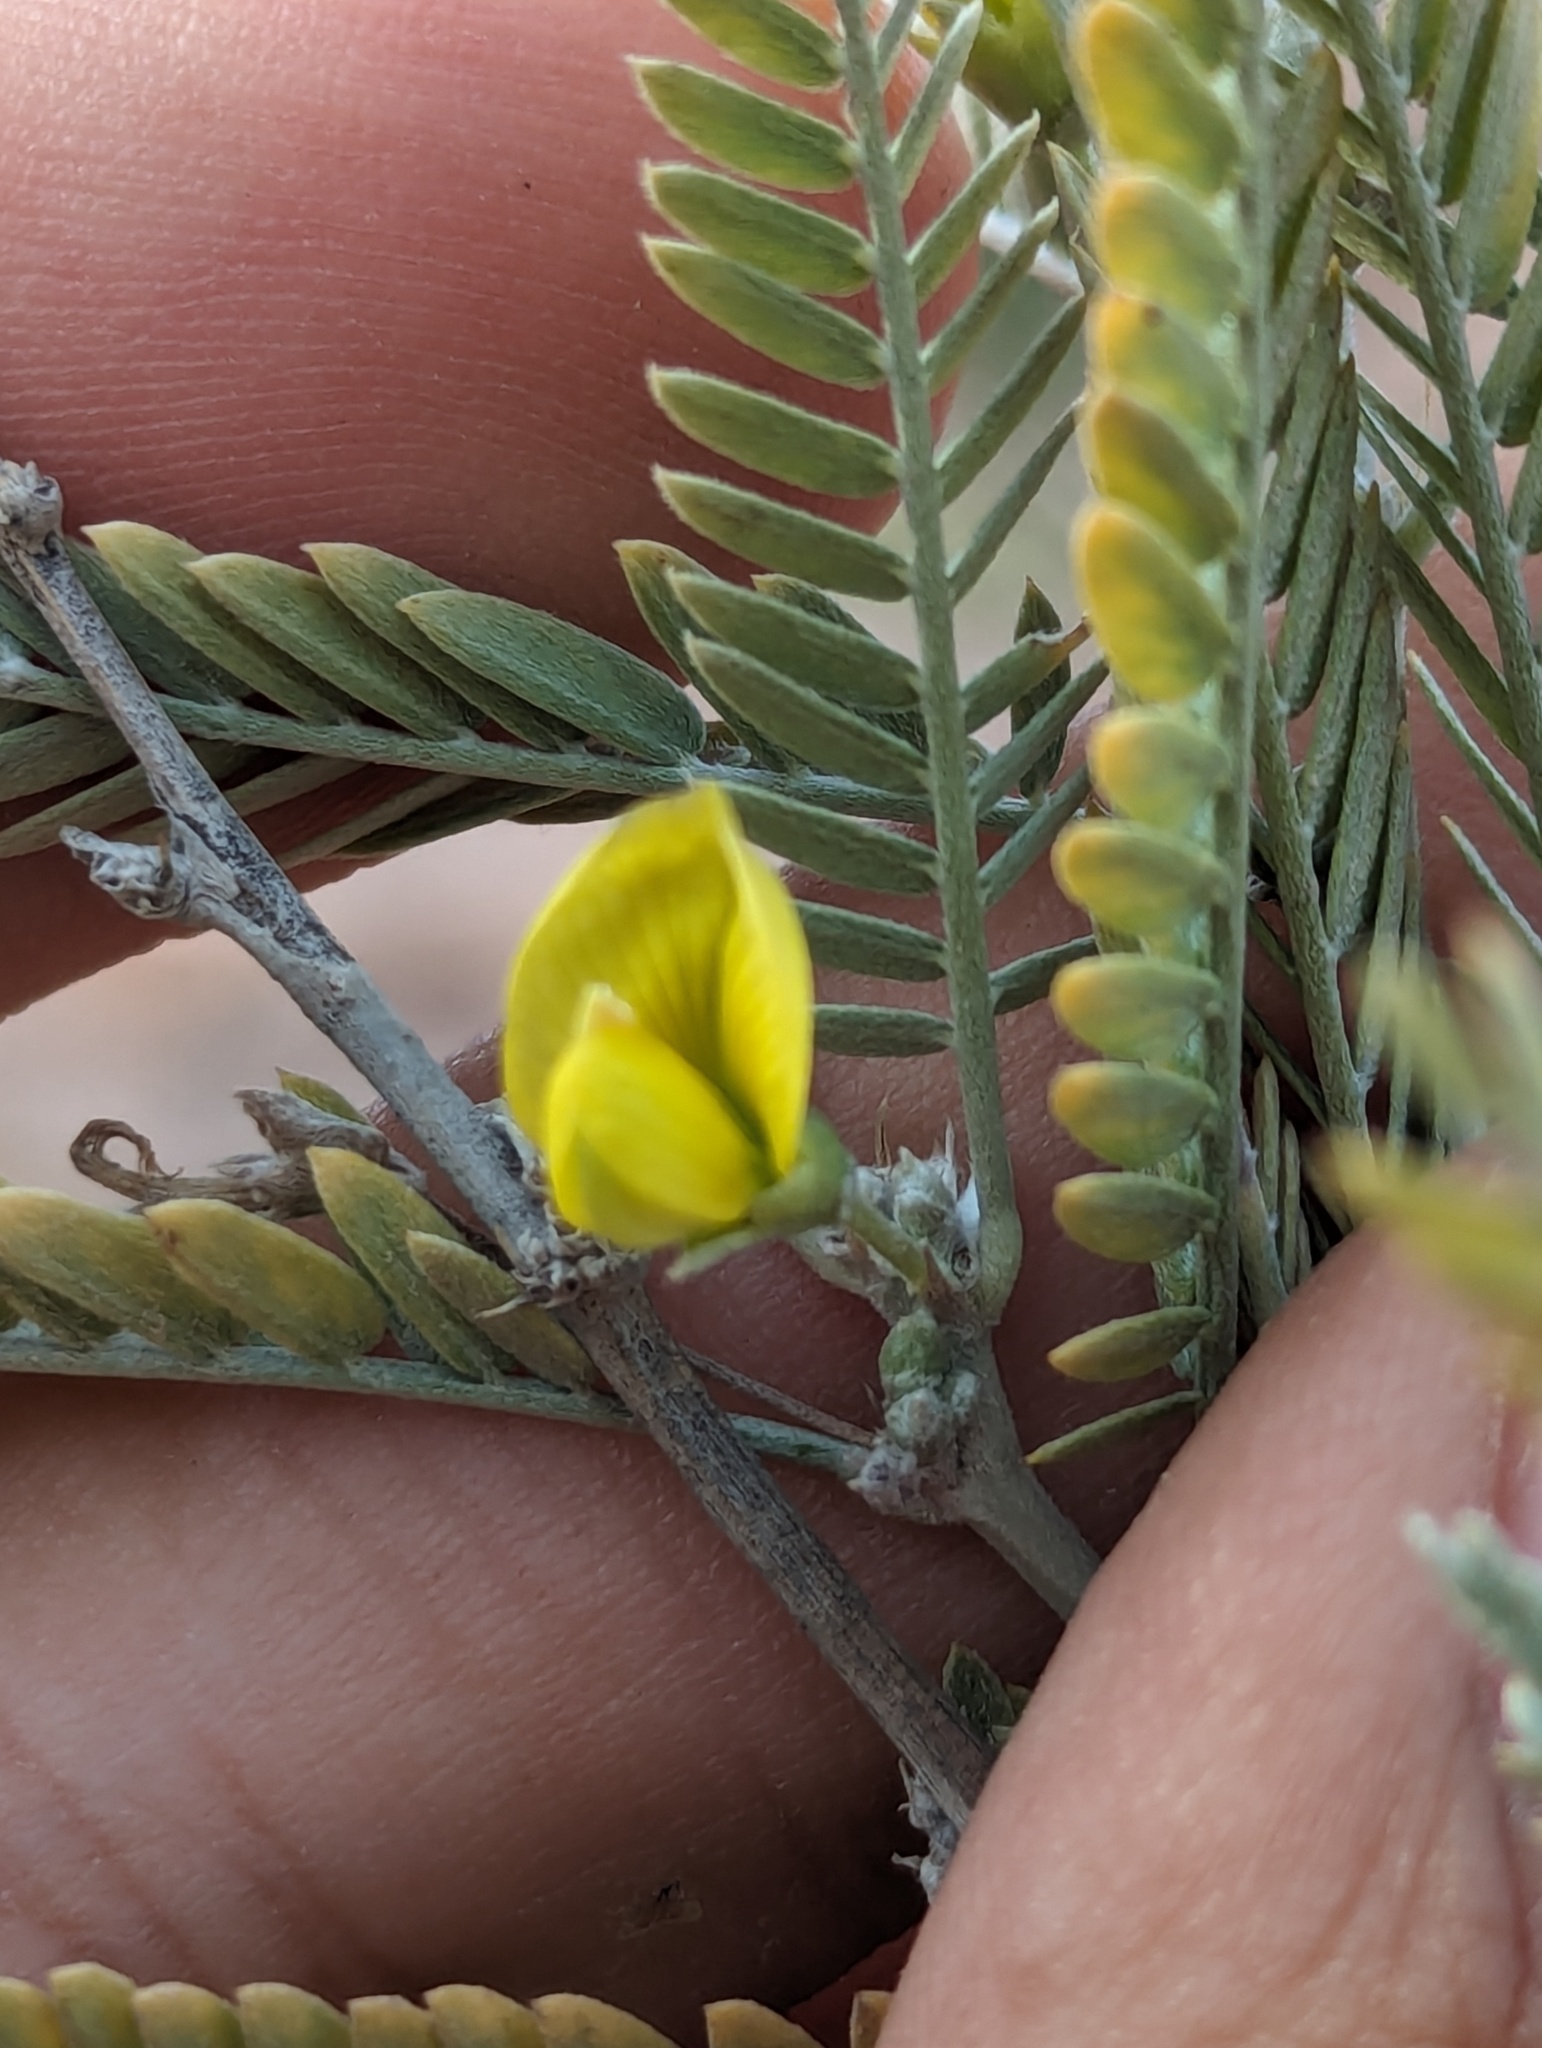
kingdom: Plantae
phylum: Tracheophyta
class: Magnoliopsida
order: Fabales
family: Fabaceae
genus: Ctenodon
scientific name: Ctenodon niveus
